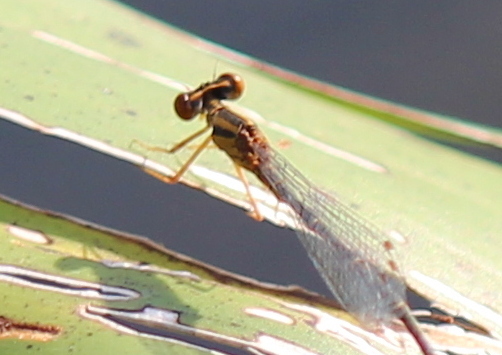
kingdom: Animalia
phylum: Arthropoda
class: Insecta
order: Odonata
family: Coenagrionidae
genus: Enallagma
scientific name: Enallagma signatum
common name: Orange bluet
